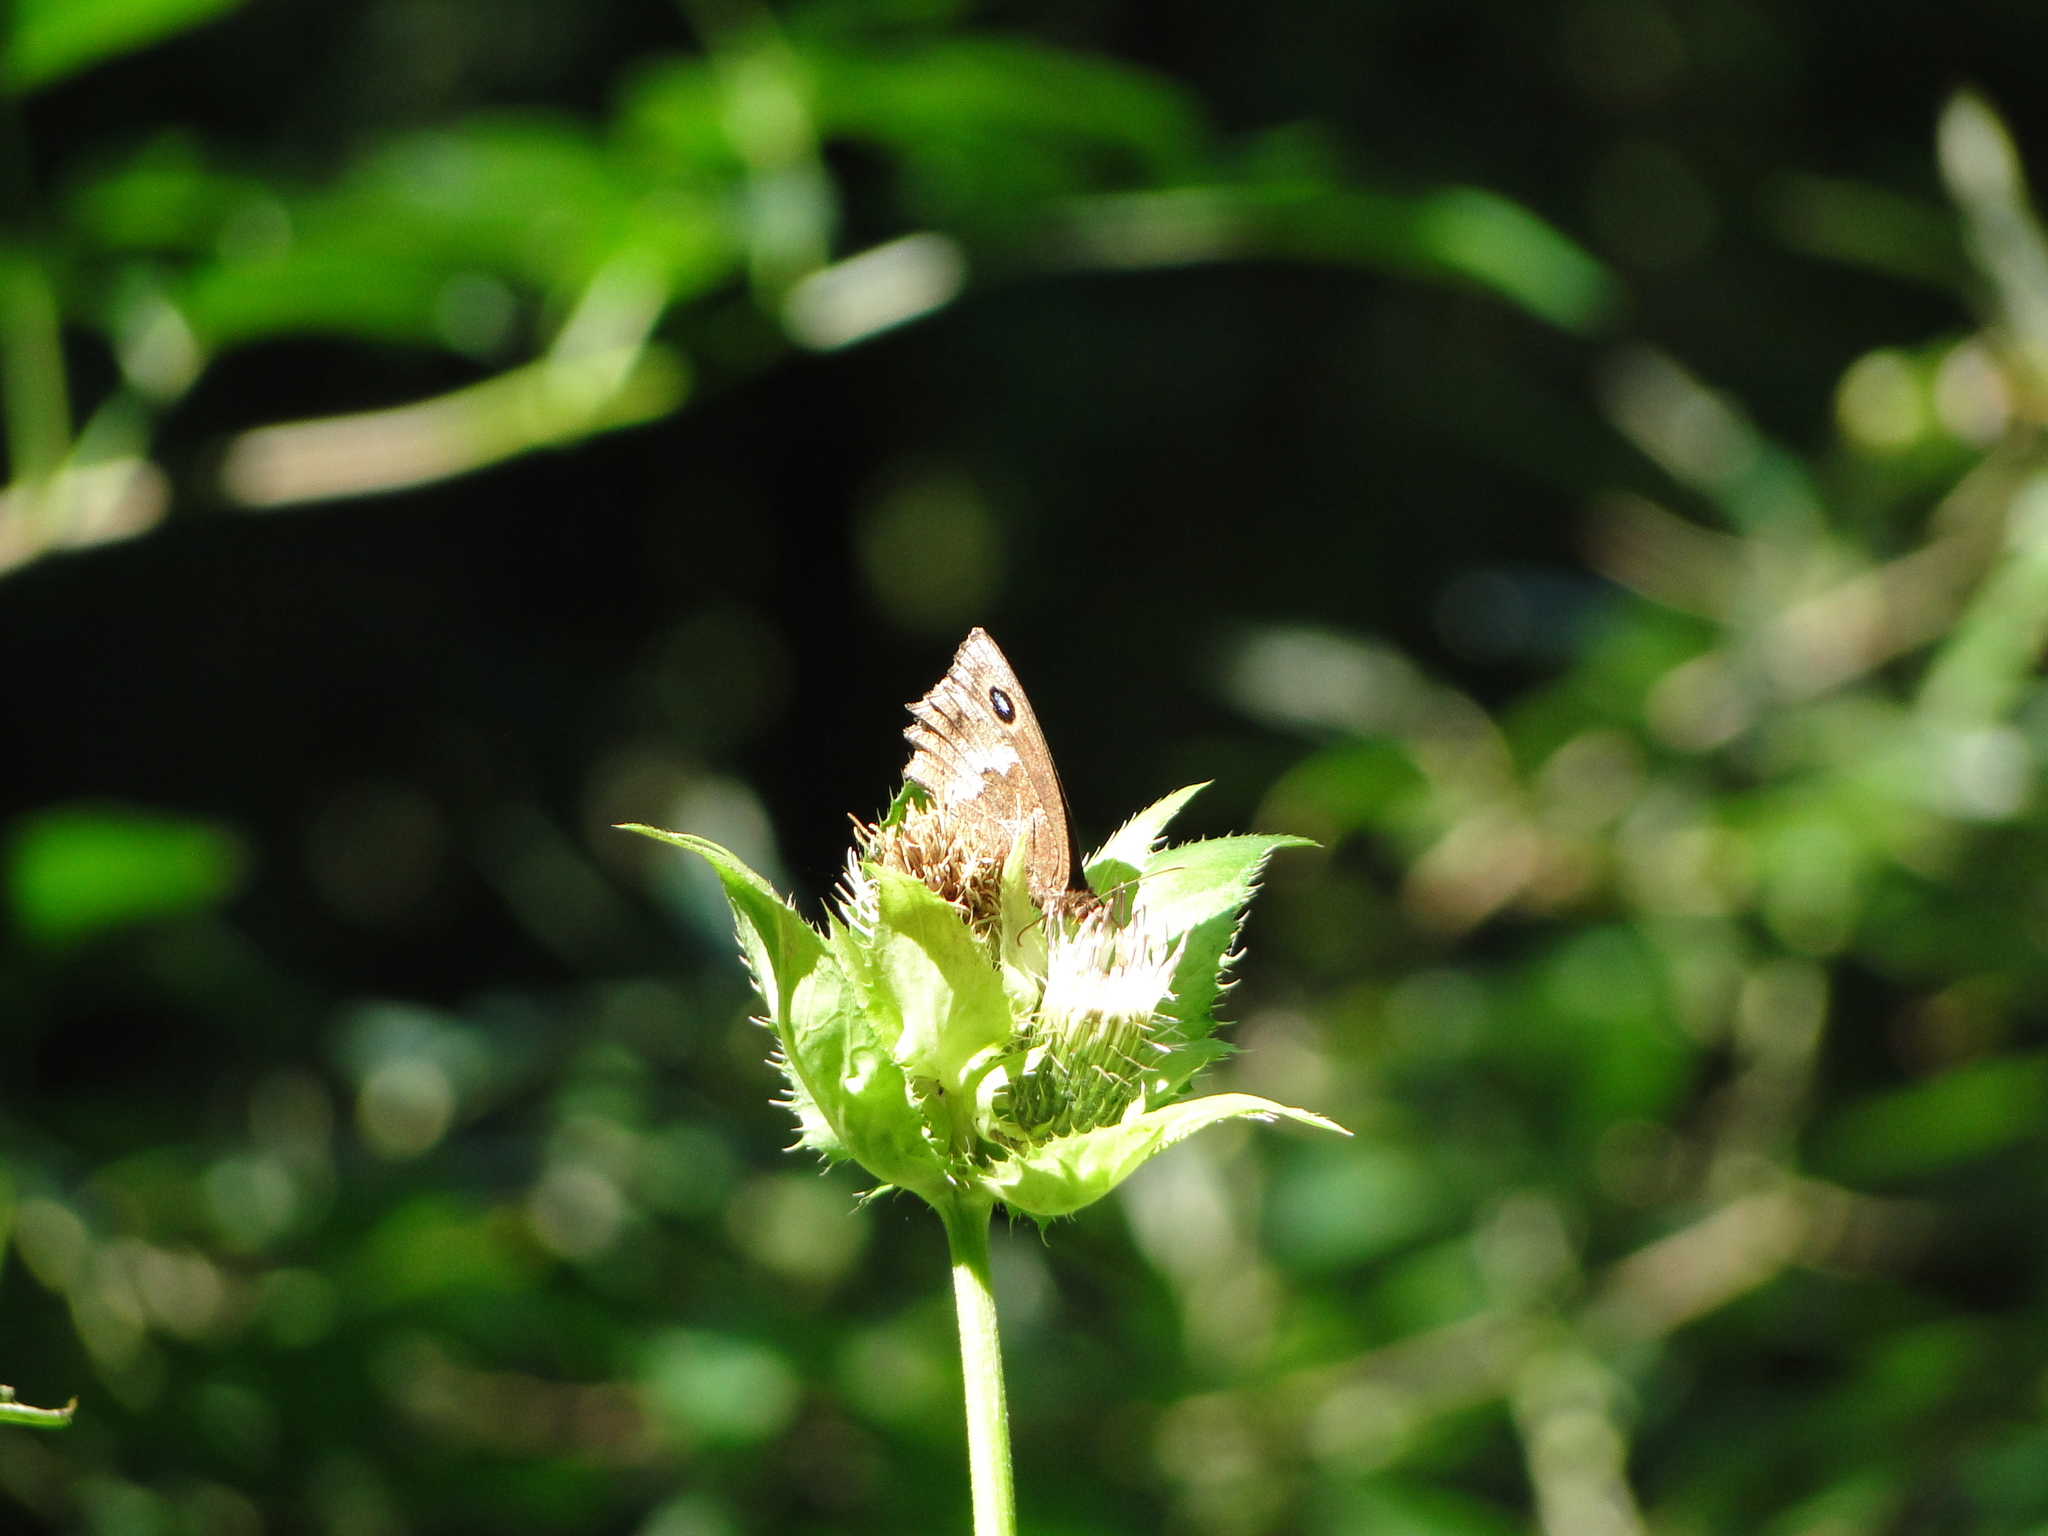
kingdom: Animalia
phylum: Arthropoda
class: Insecta
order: Lepidoptera
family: Nymphalidae
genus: Minois
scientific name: Minois dryas
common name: Dryad
